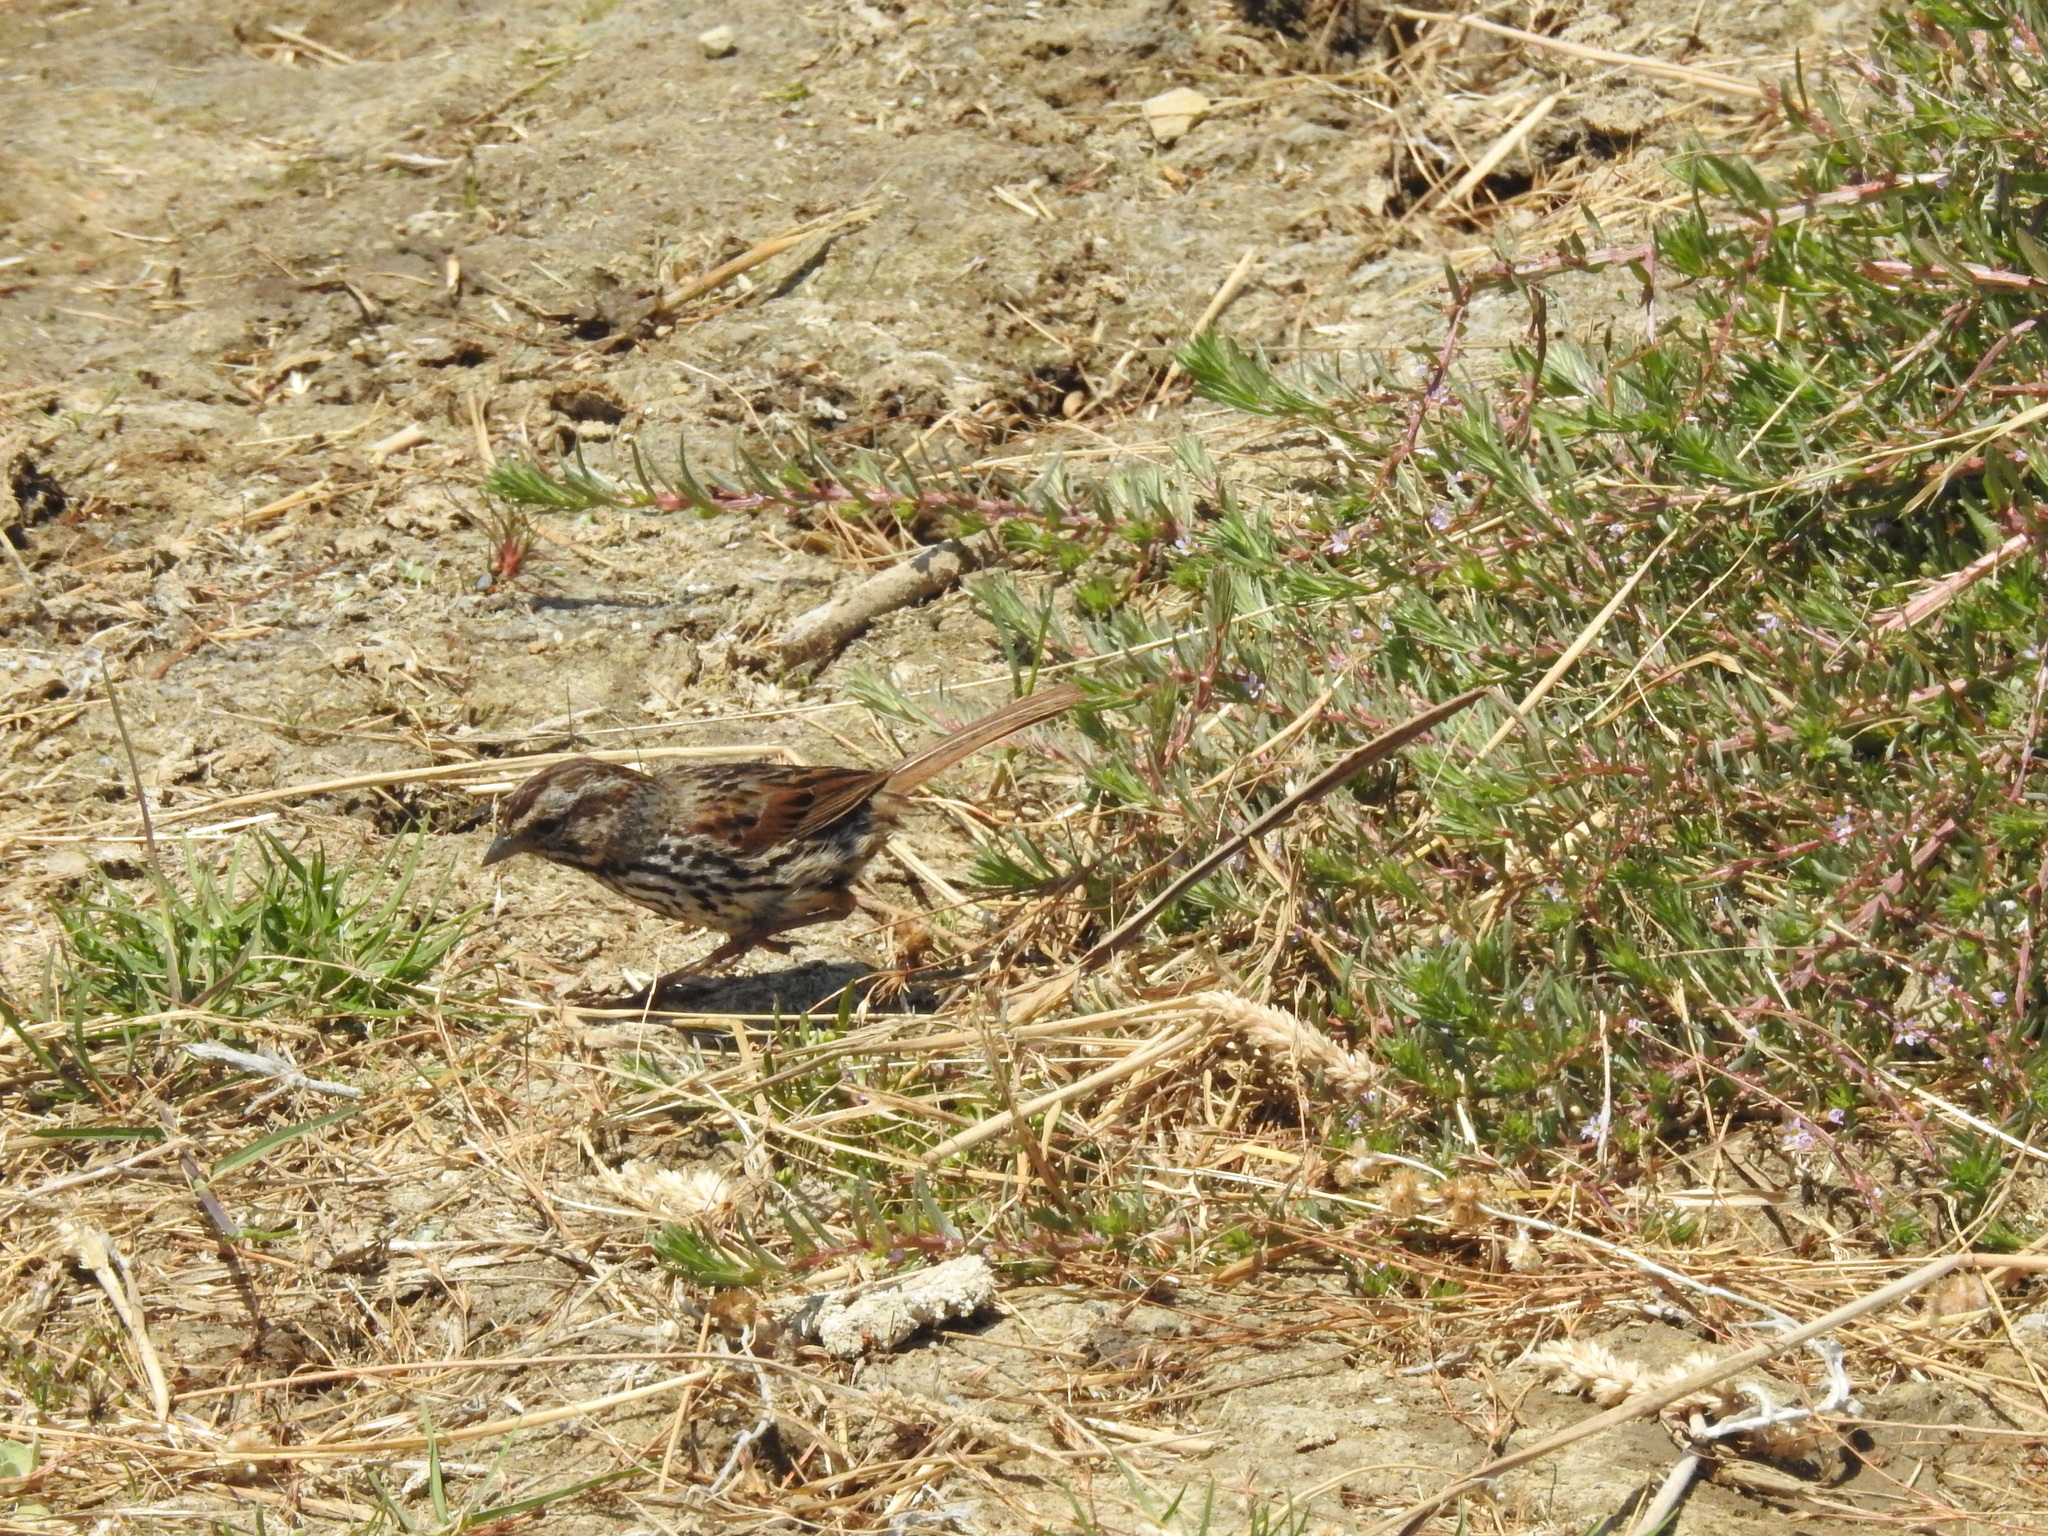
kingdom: Animalia
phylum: Chordata
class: Aves
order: Passeriformes
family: Passerellidae
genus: Melospiza
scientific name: Melospiza melodia
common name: Song sparrow
